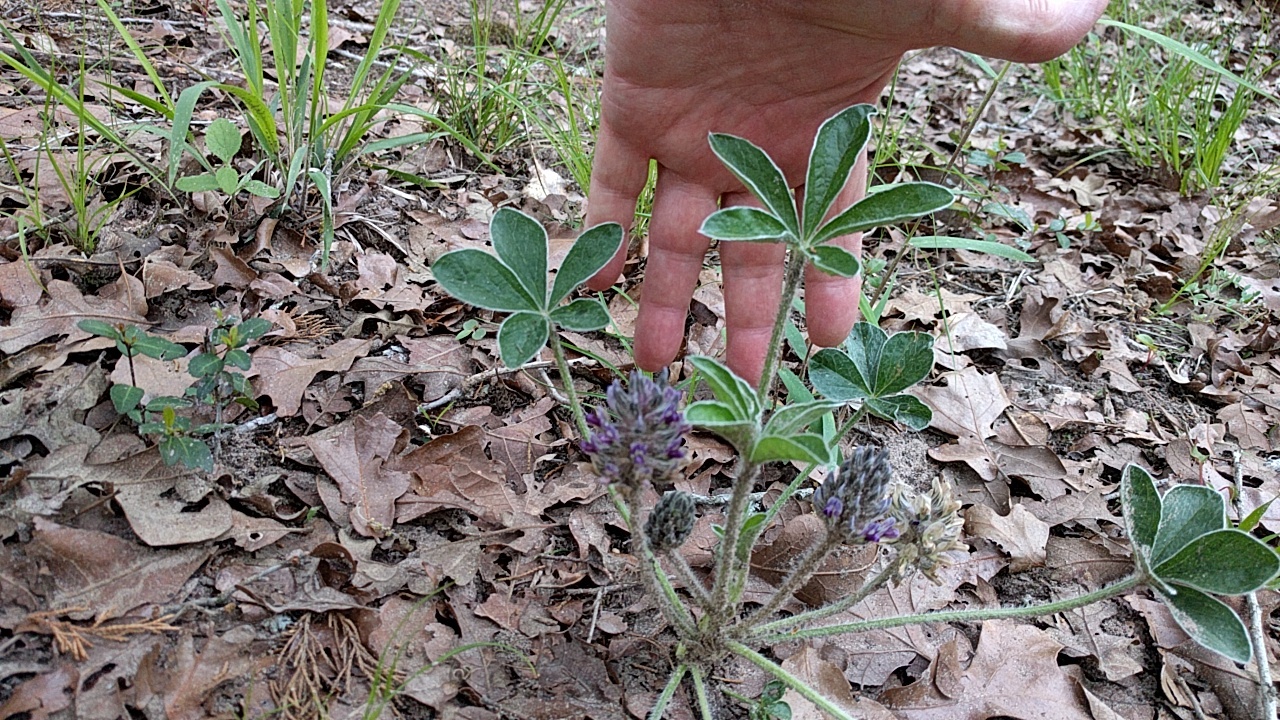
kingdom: Plantae
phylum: Tracheophyta
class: Magnoliopsida
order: Fabales
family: Fabaceae
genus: Pediomelum
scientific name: Pediomelum hypogaeum
